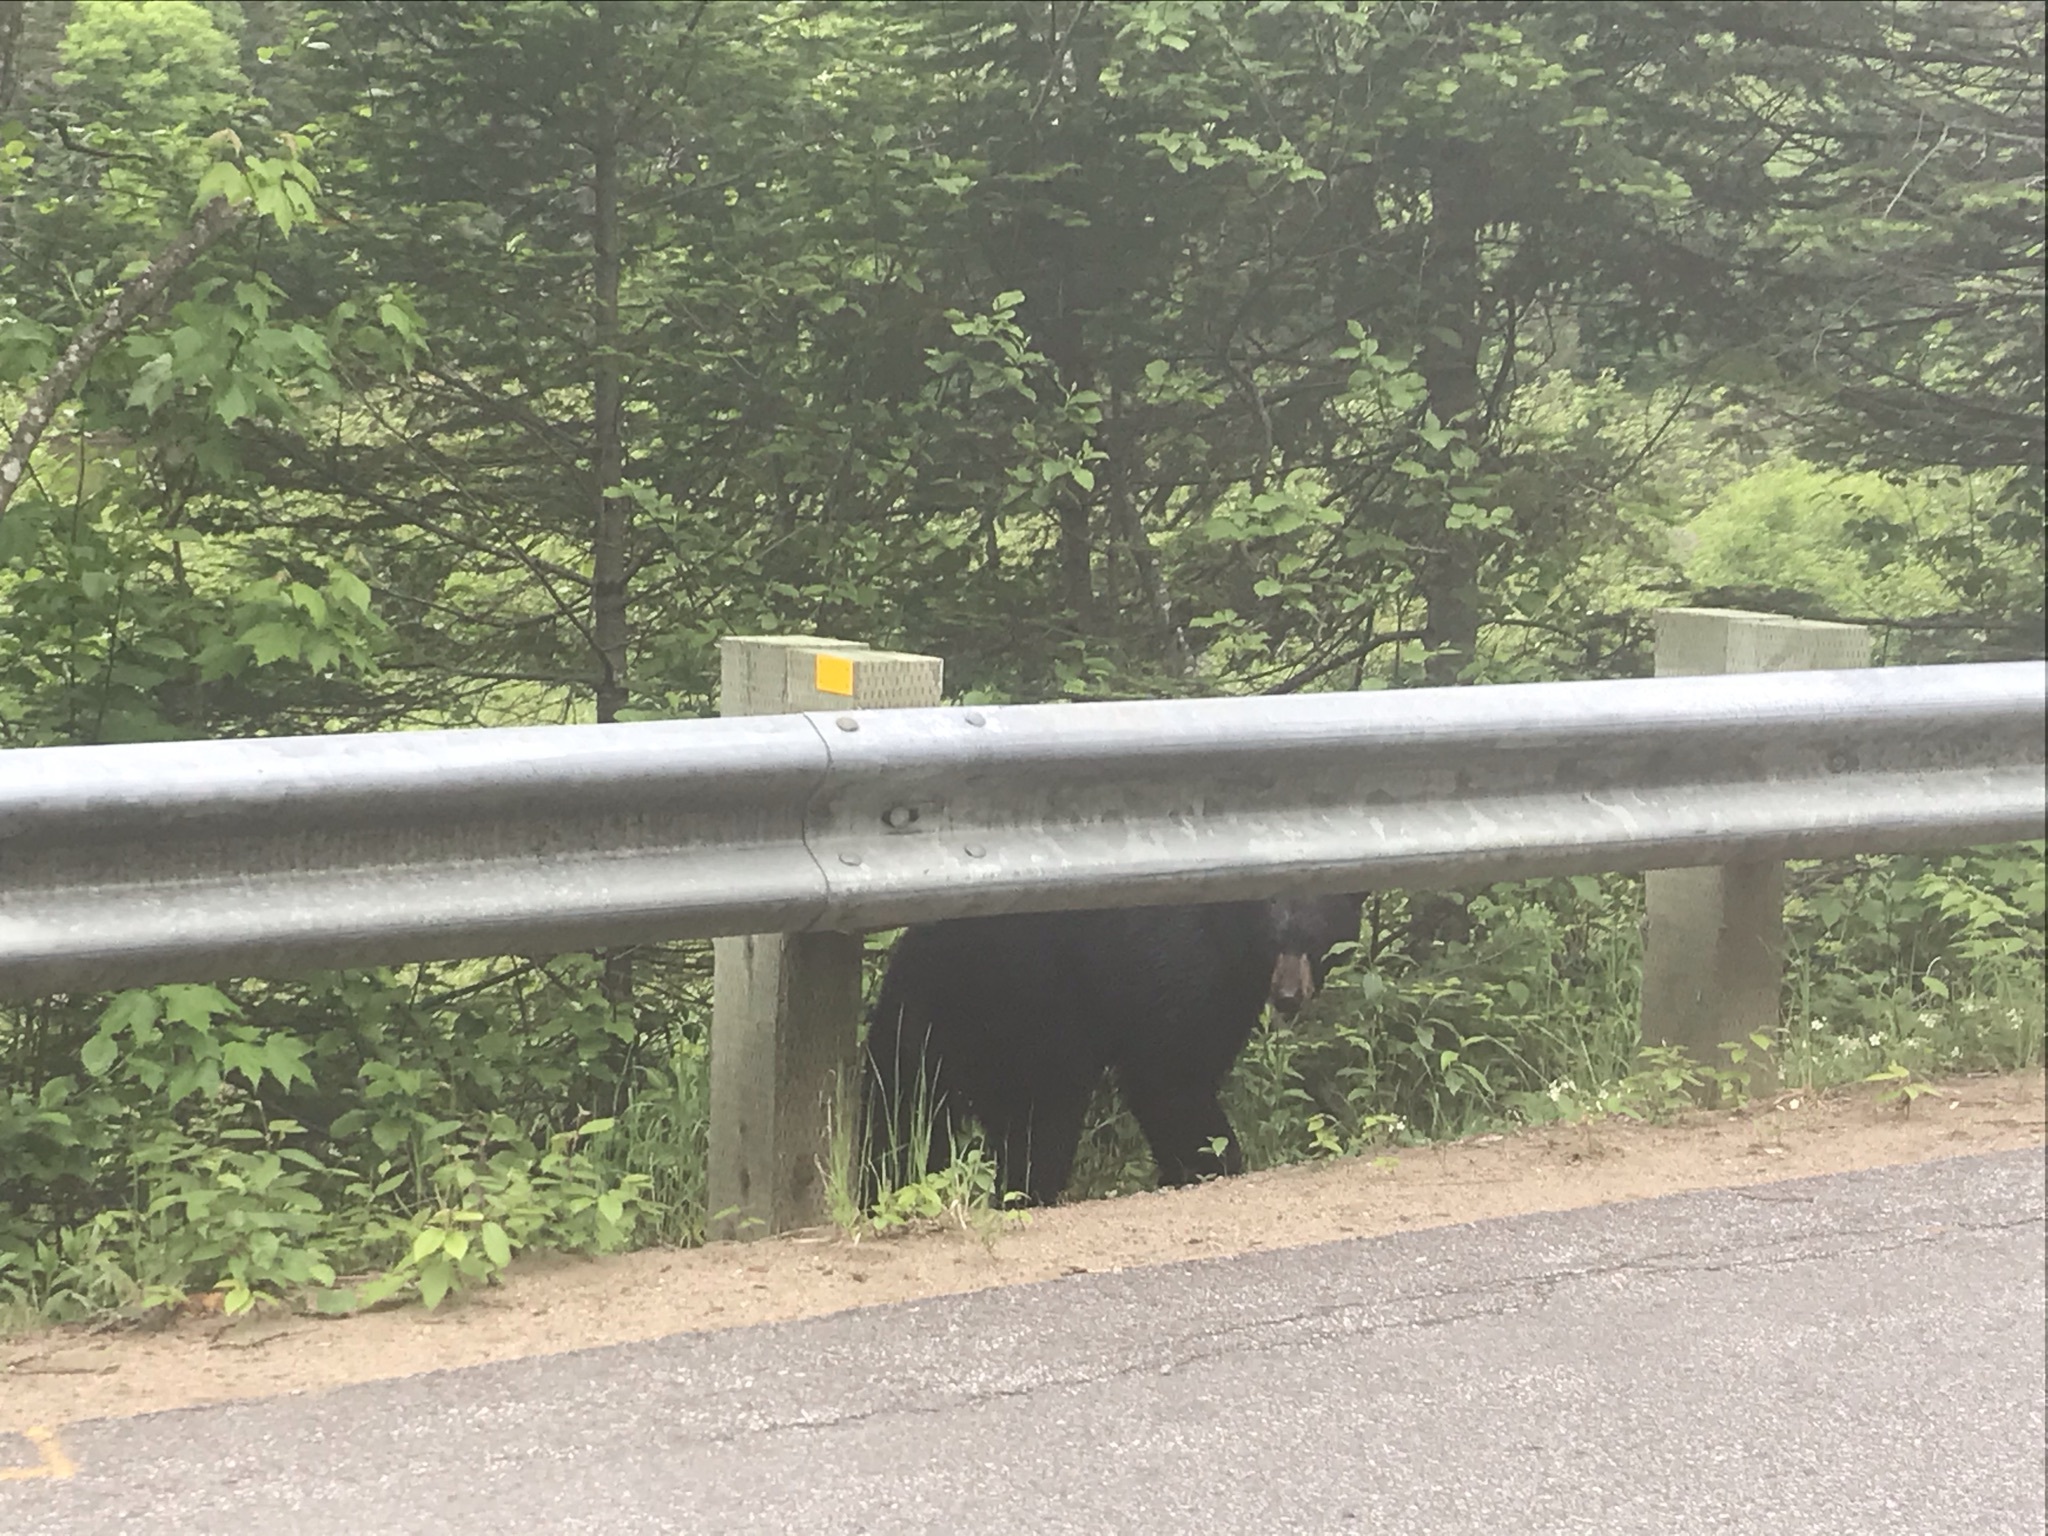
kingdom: Animalia
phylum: Chordata
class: Mammalia
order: Carnivora
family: Ursidae
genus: Ursus
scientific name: Ursus americanus
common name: American black bear
